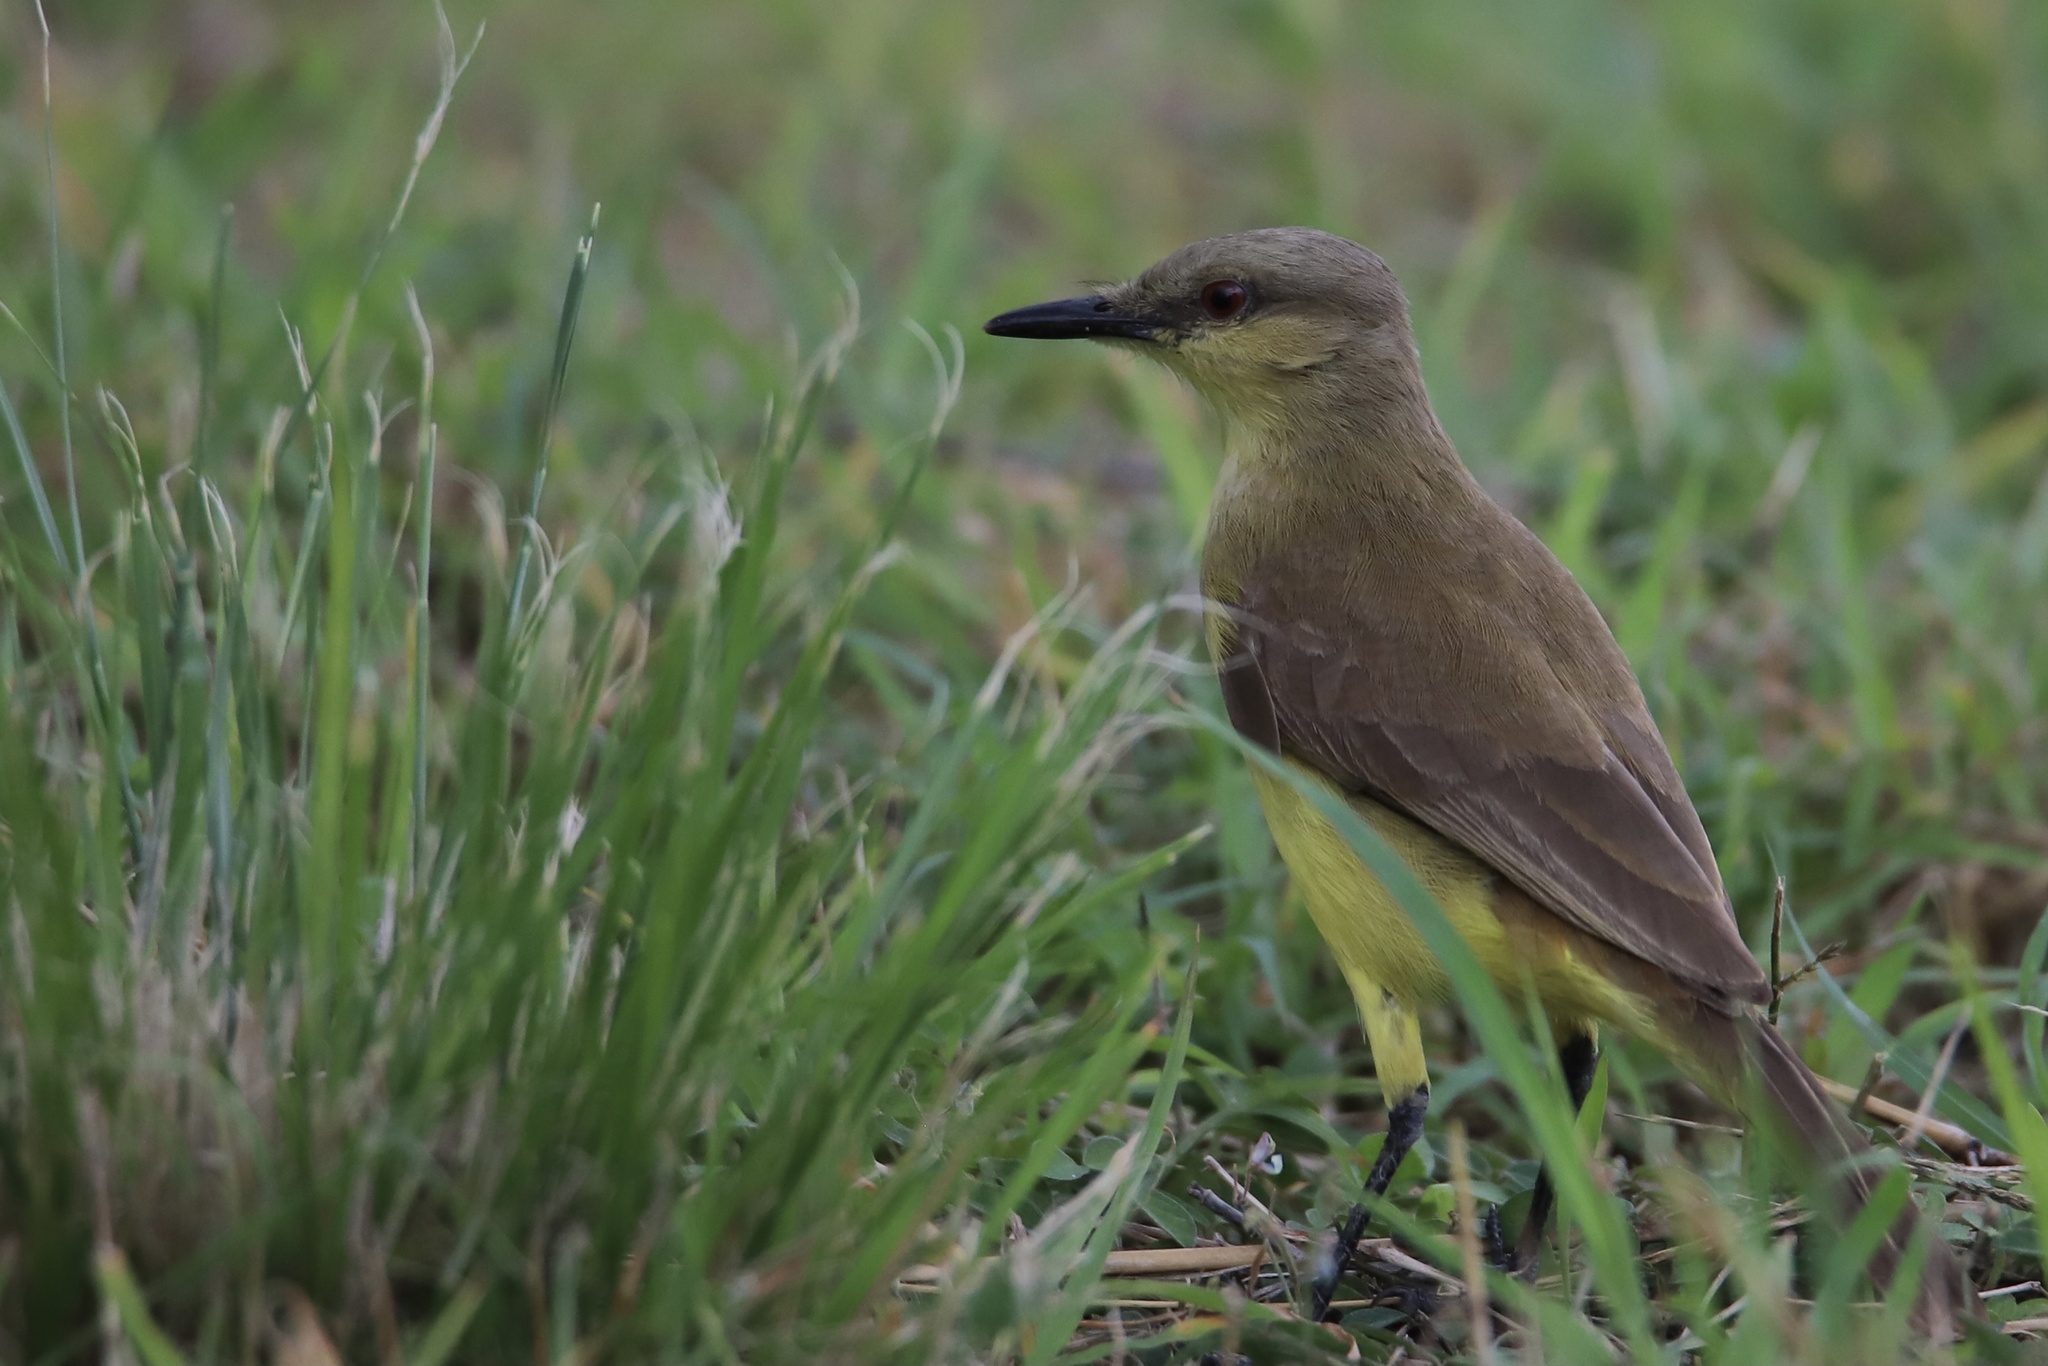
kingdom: Animalia
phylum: Chordata
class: Aves
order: Passeriformes
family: Tyrannidae
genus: Machetornis
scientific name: Machetornis rixosa
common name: Cattle tyrant
